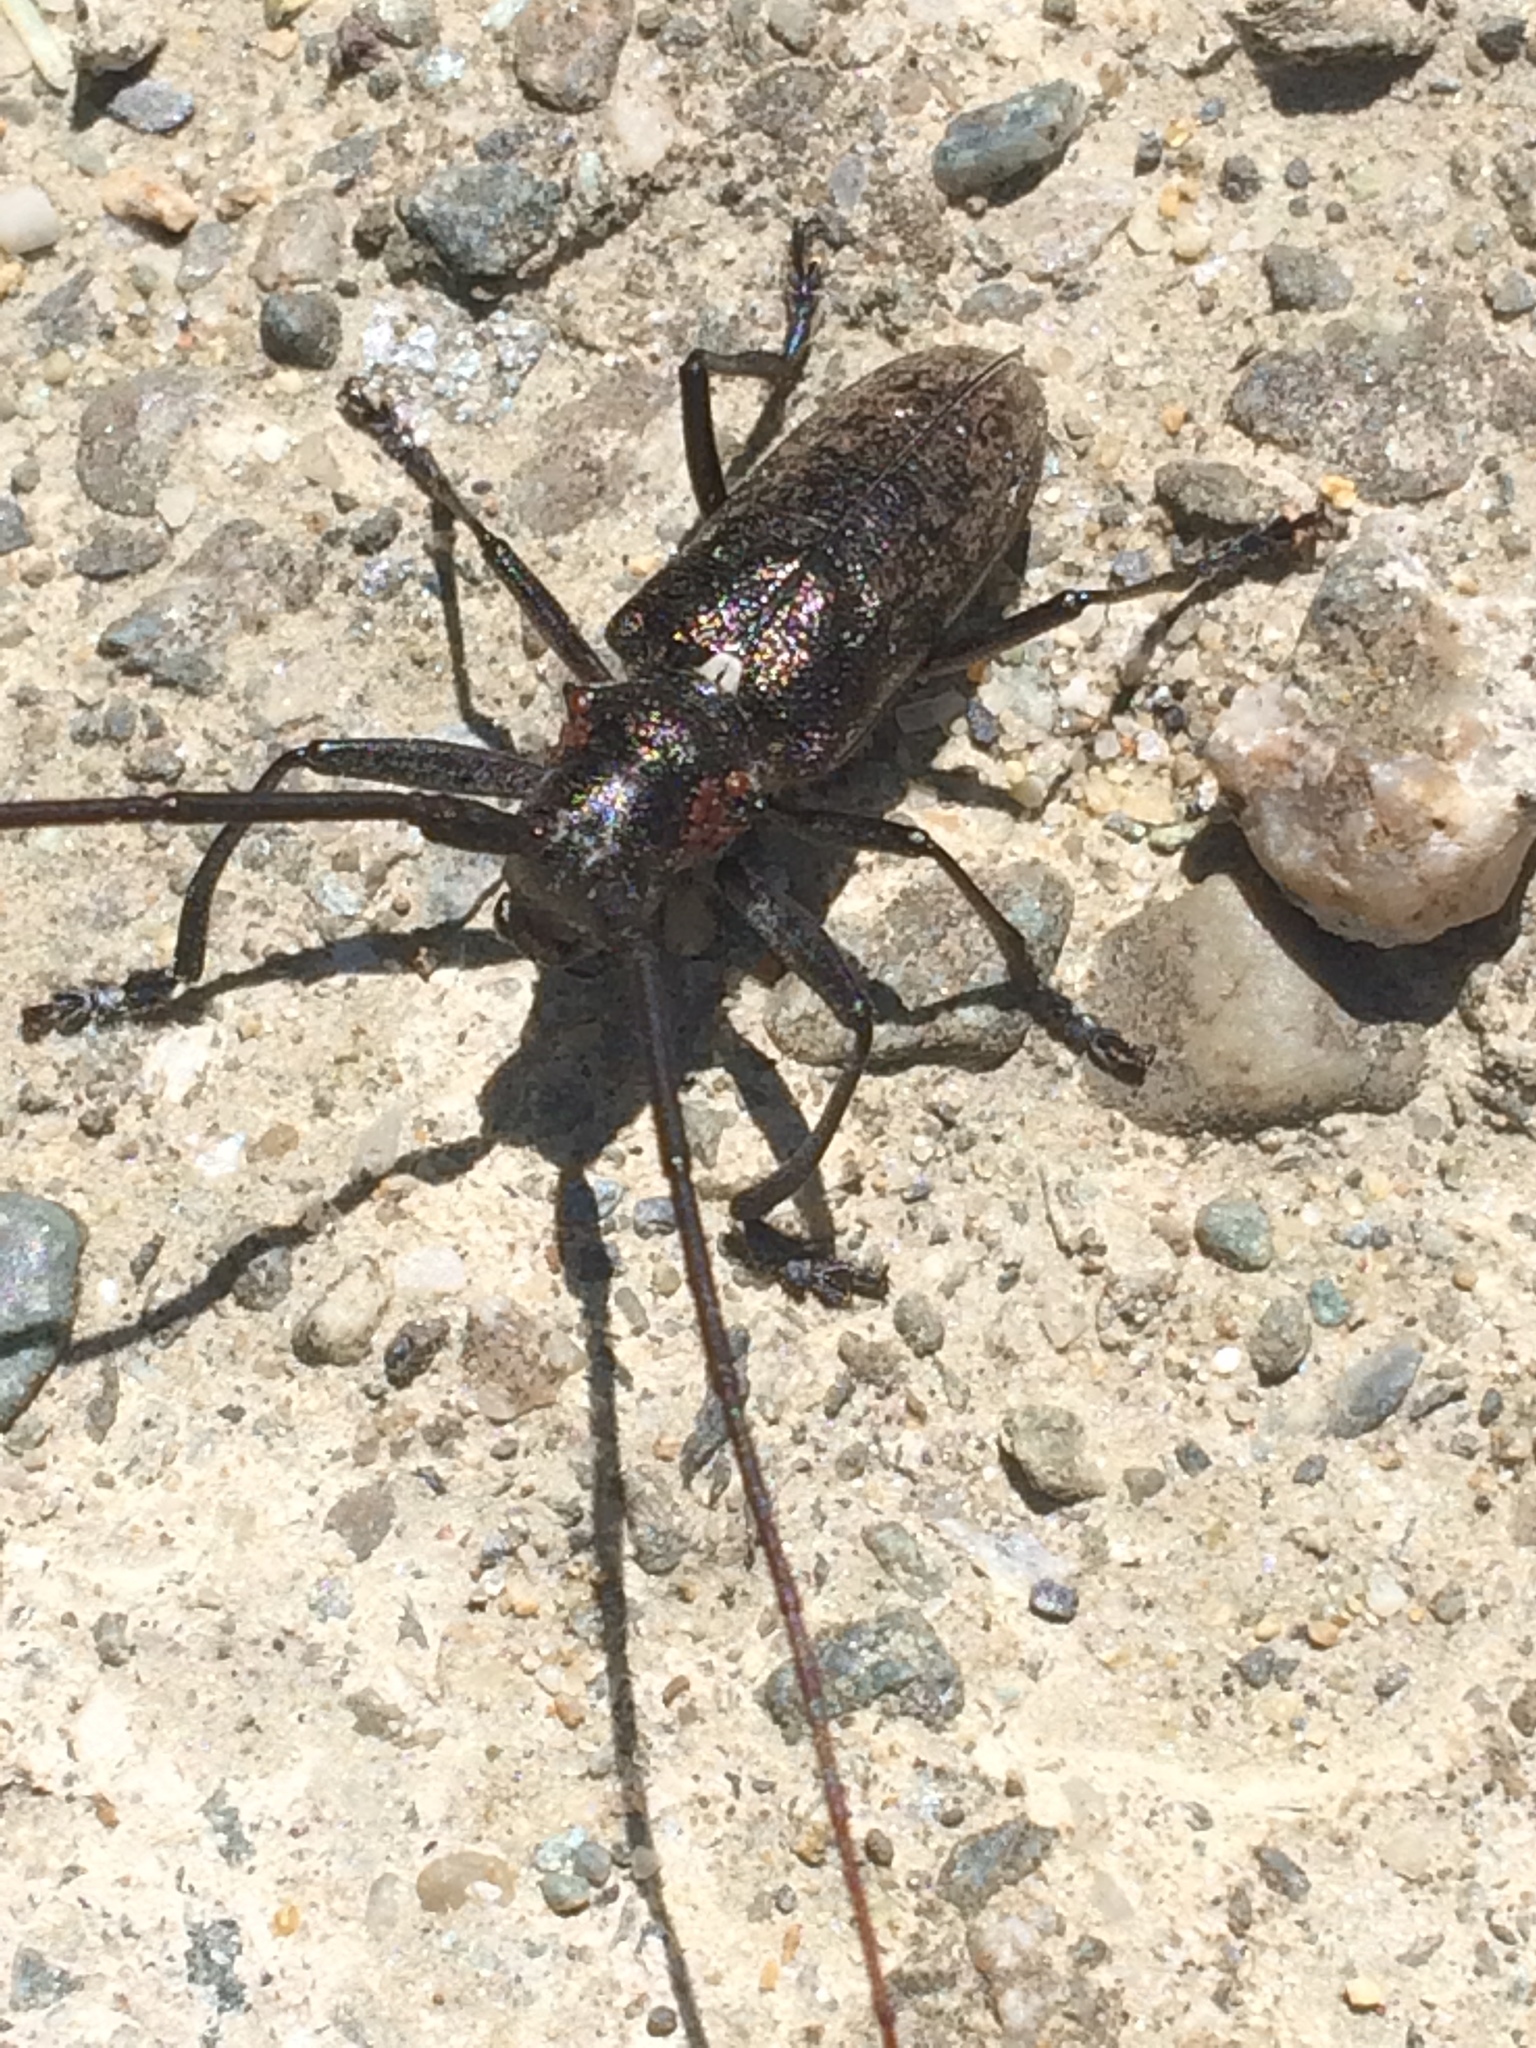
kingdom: Animalia
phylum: Arthropoda
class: Insecta
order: Coleoptera
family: Cerambycidae
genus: Monochamus
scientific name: Monochamus scutellatus
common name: White-spotted sawyer beetle
